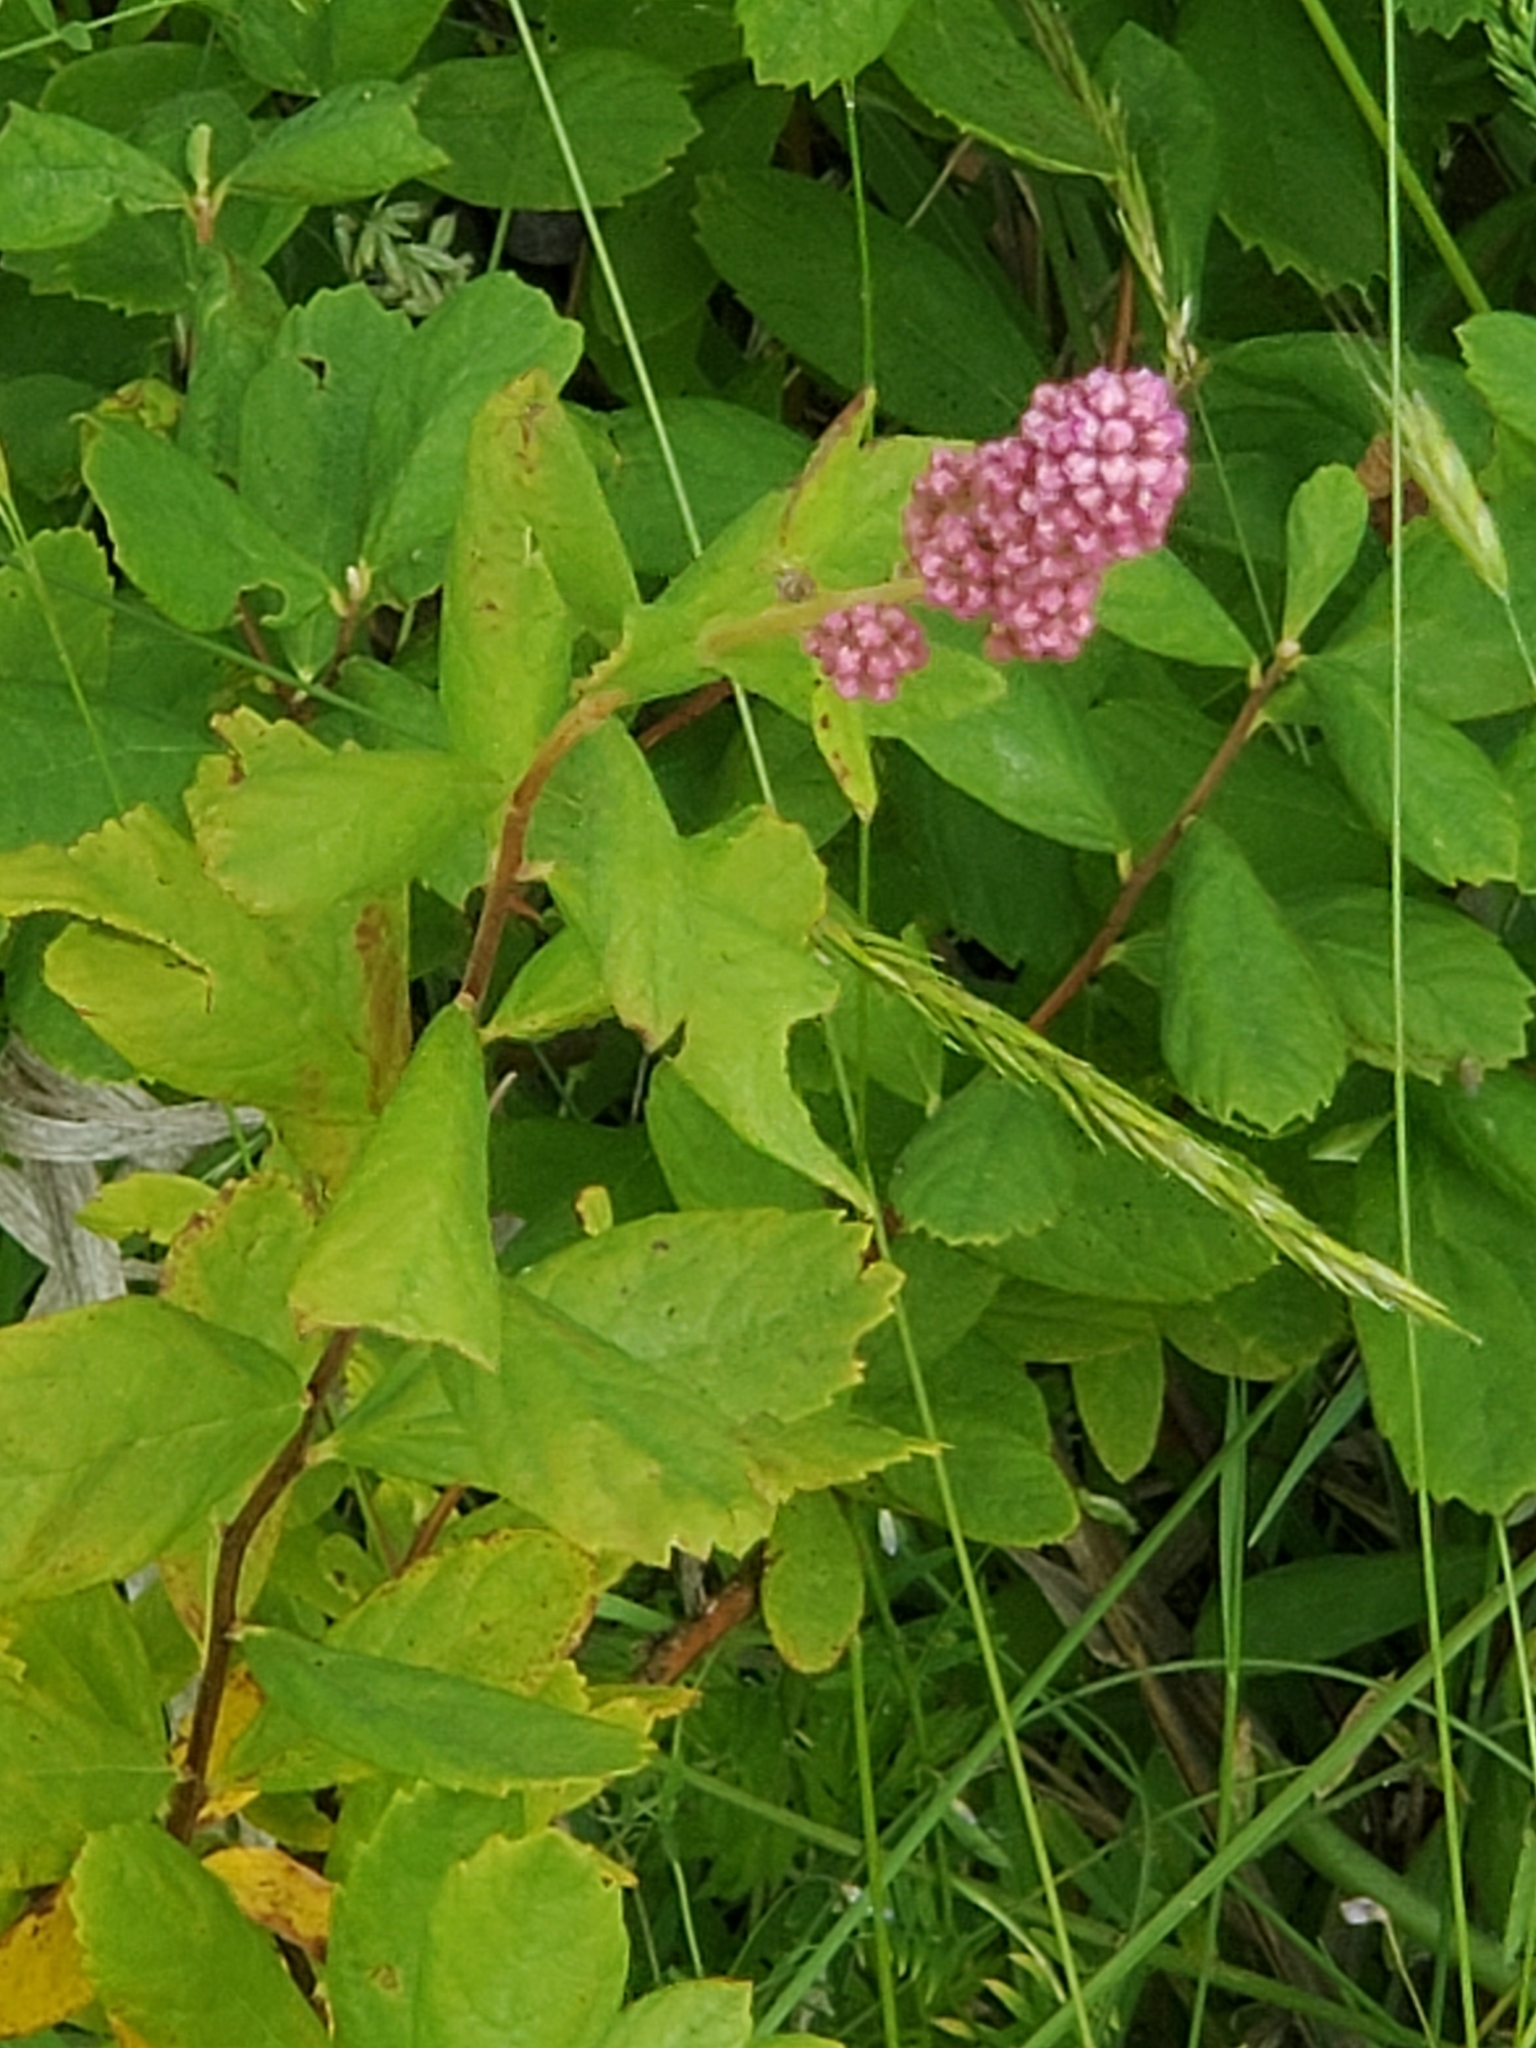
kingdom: Plantae
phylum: Tracheophyta
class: Magnoliopsida
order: Rosales
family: Rosaceae
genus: Spiraea
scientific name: Spiraea douglasii
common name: Steeplebush
